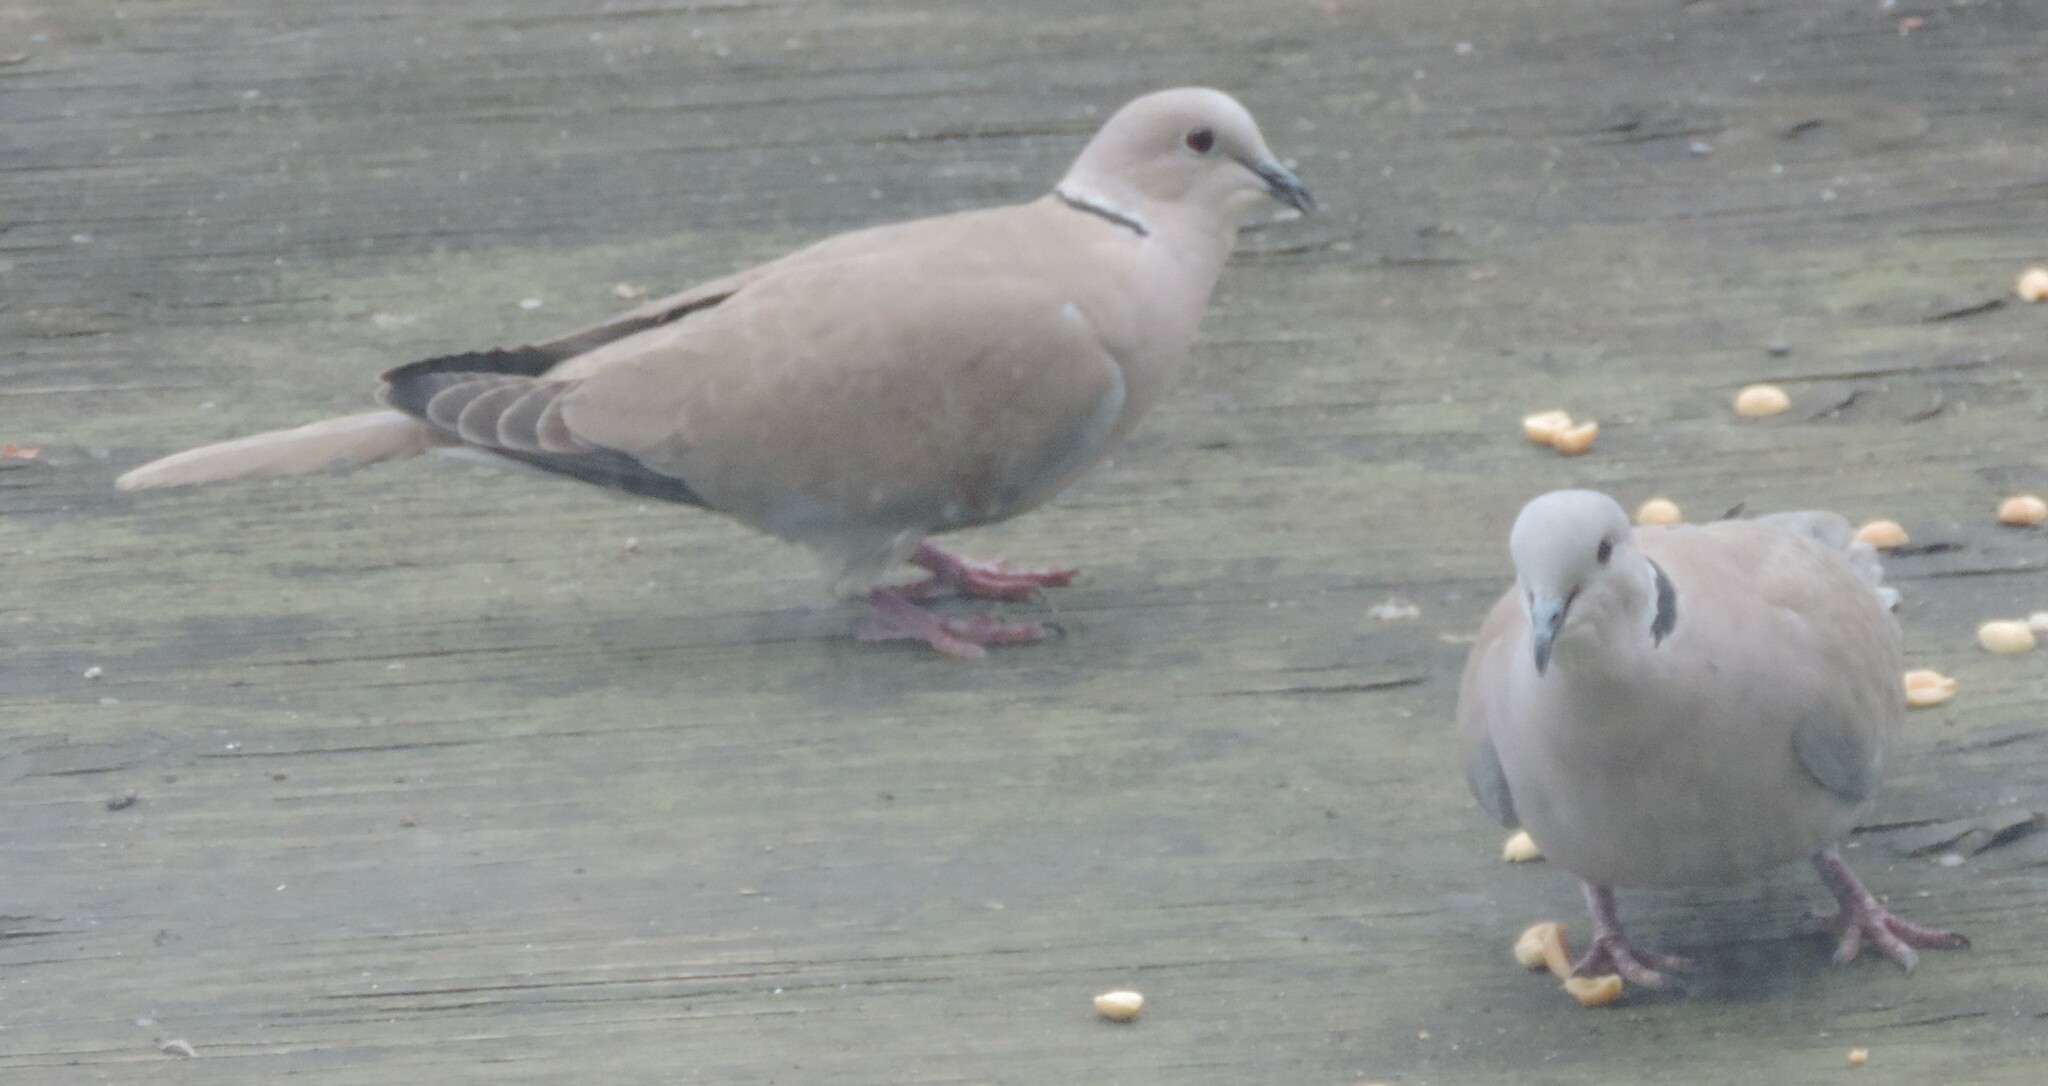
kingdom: Animalia
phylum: Chordata
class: Aves
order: Columbiformes
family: Columbidae
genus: Streptopelia
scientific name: Streptopelia decaocto
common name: Eurasian collared dove
